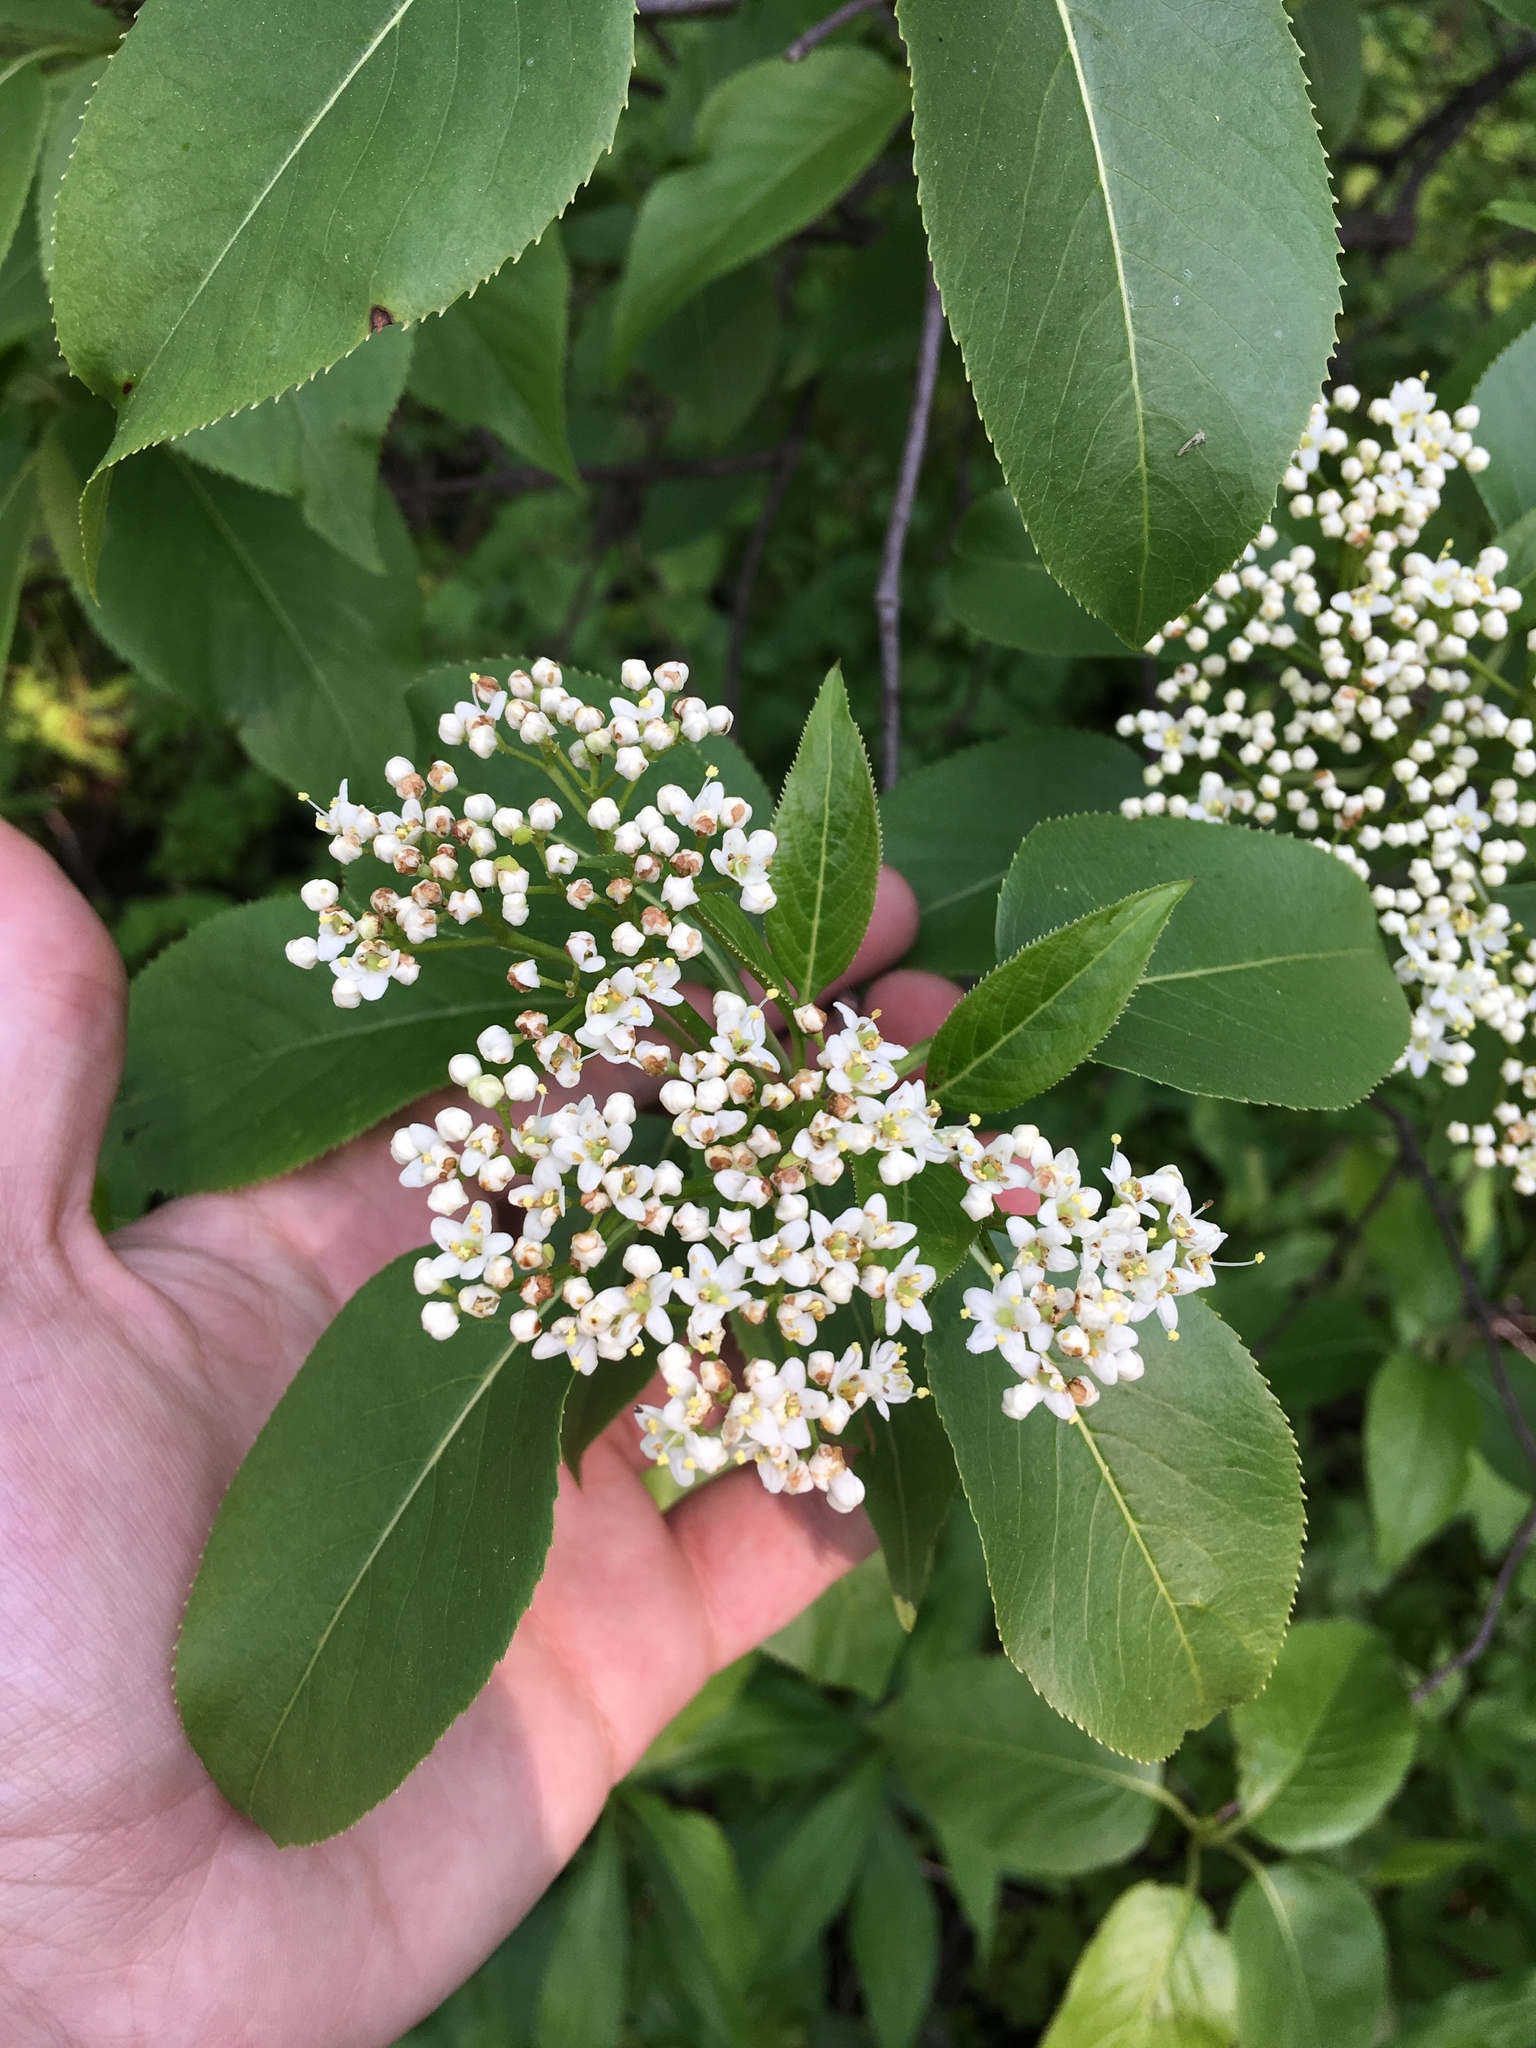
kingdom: Plantae
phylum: Tracheophyta
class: Magnoliopsida
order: Dipsacales
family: Viburnaceae
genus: Viburnum
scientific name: Viburnum lentago
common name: Black haw
